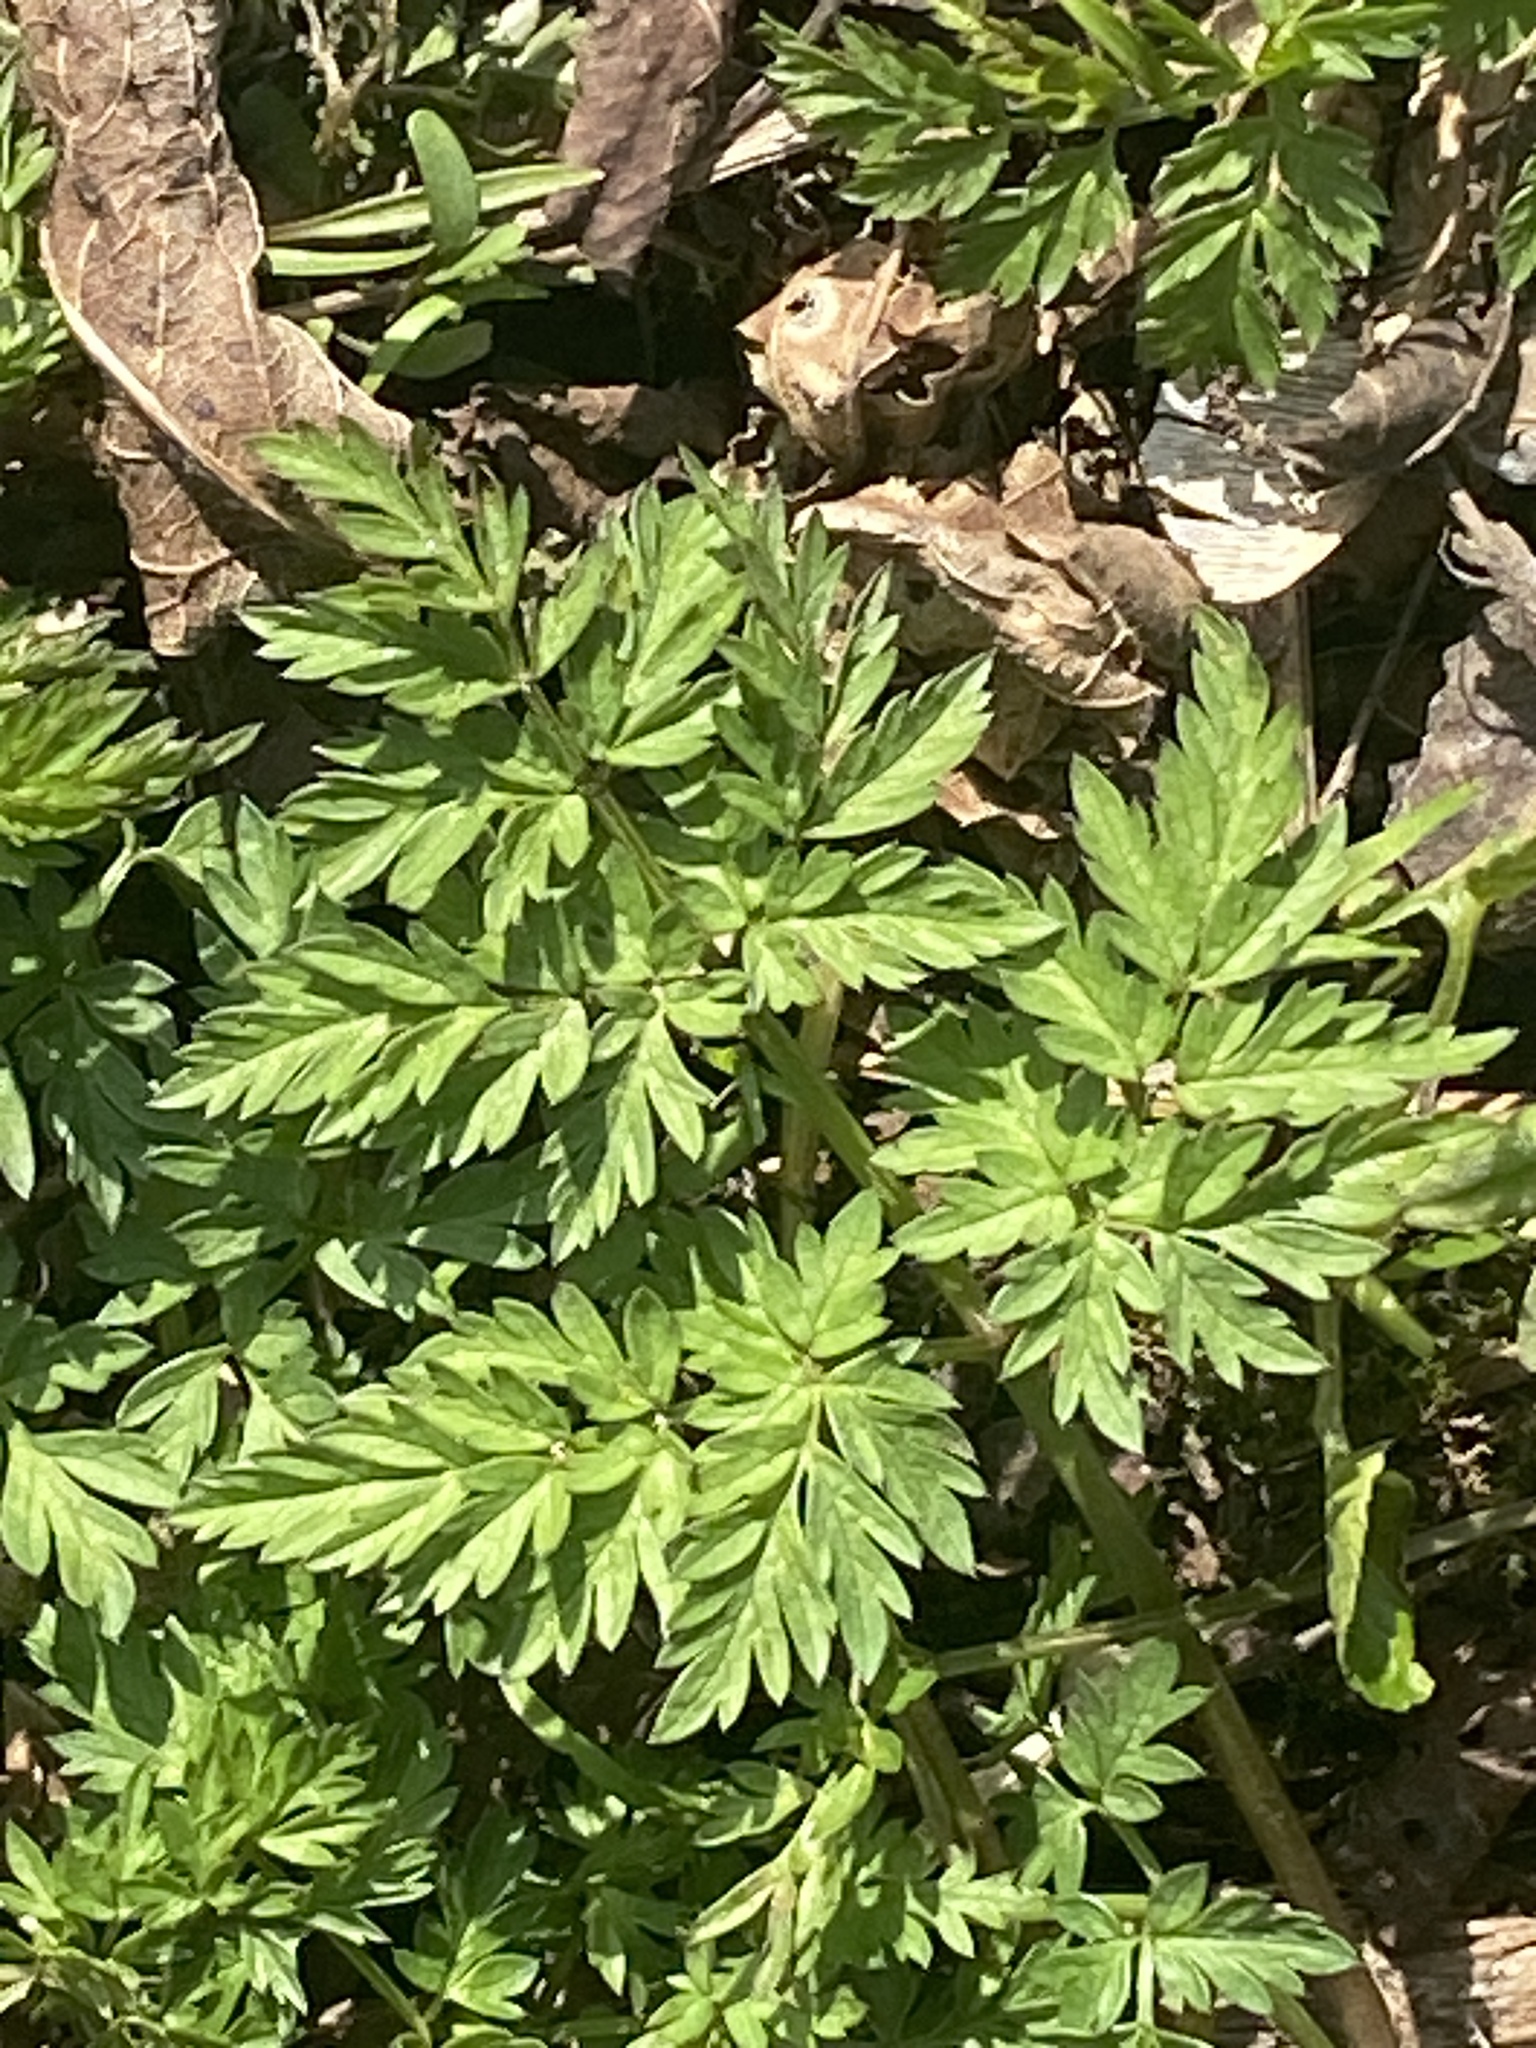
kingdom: Plantae
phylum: Tracheophyta
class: Magnoliopsida
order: Apiales
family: Apiaceae
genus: Anthriscus
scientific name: Anthriscus sylvestris
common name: Cow parsley
